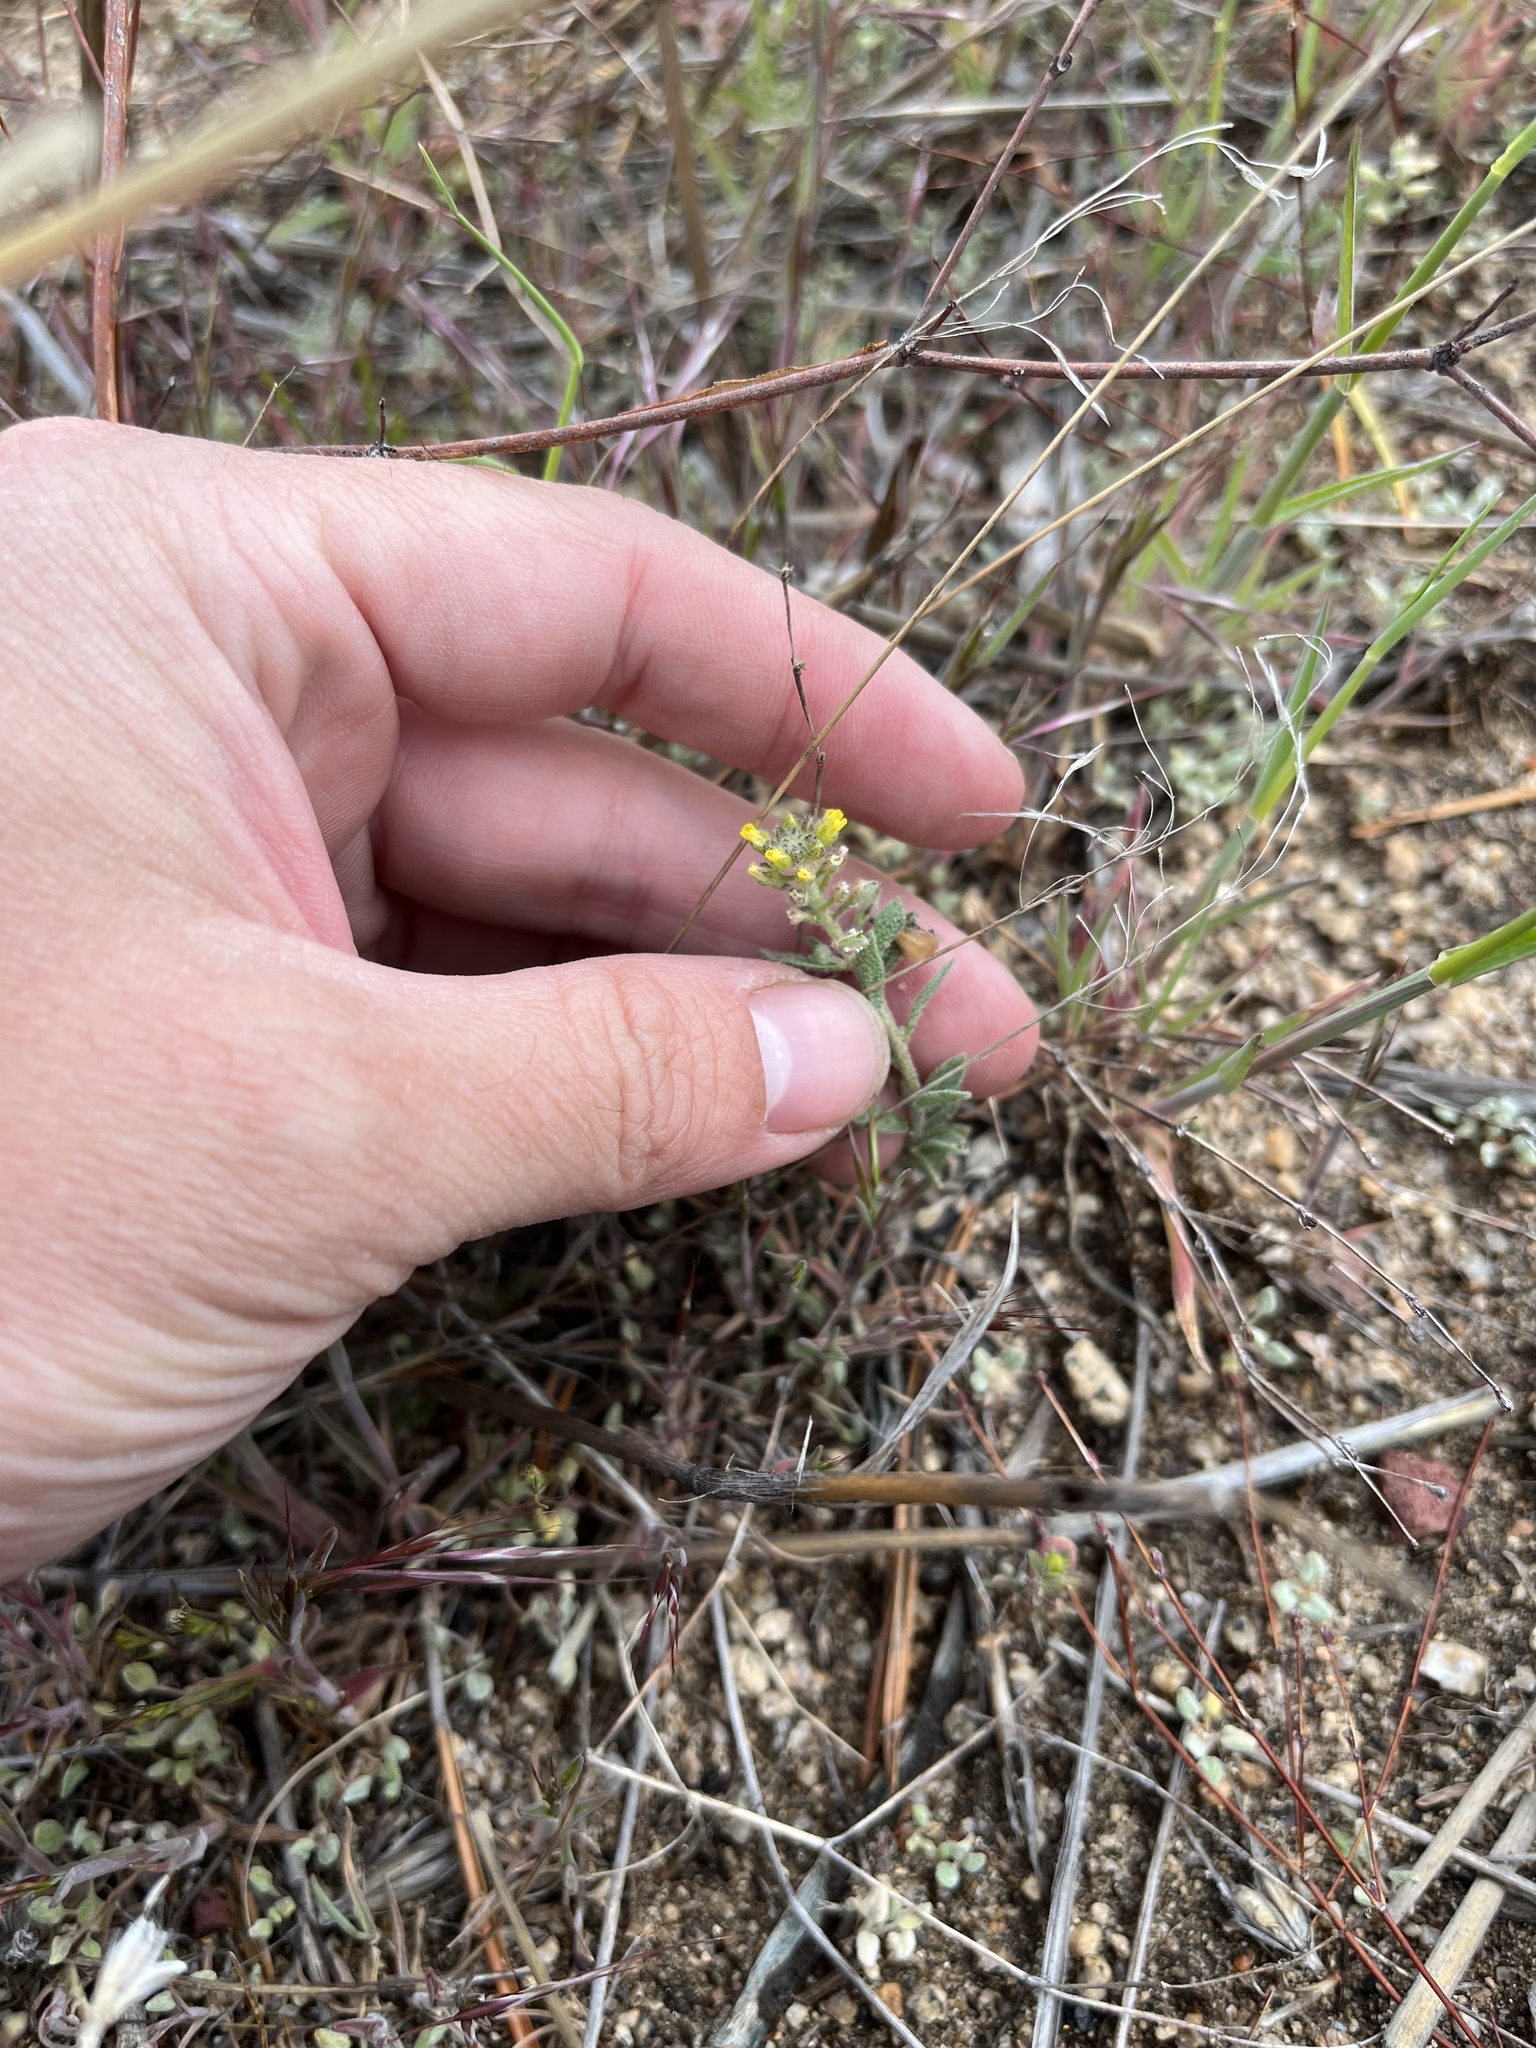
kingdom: Plantae
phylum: Tracheophyta
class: Magnoliopsida
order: Brassicales
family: Brassicaceae
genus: Alyssum
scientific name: Alyssum simplex
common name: Alyssum
